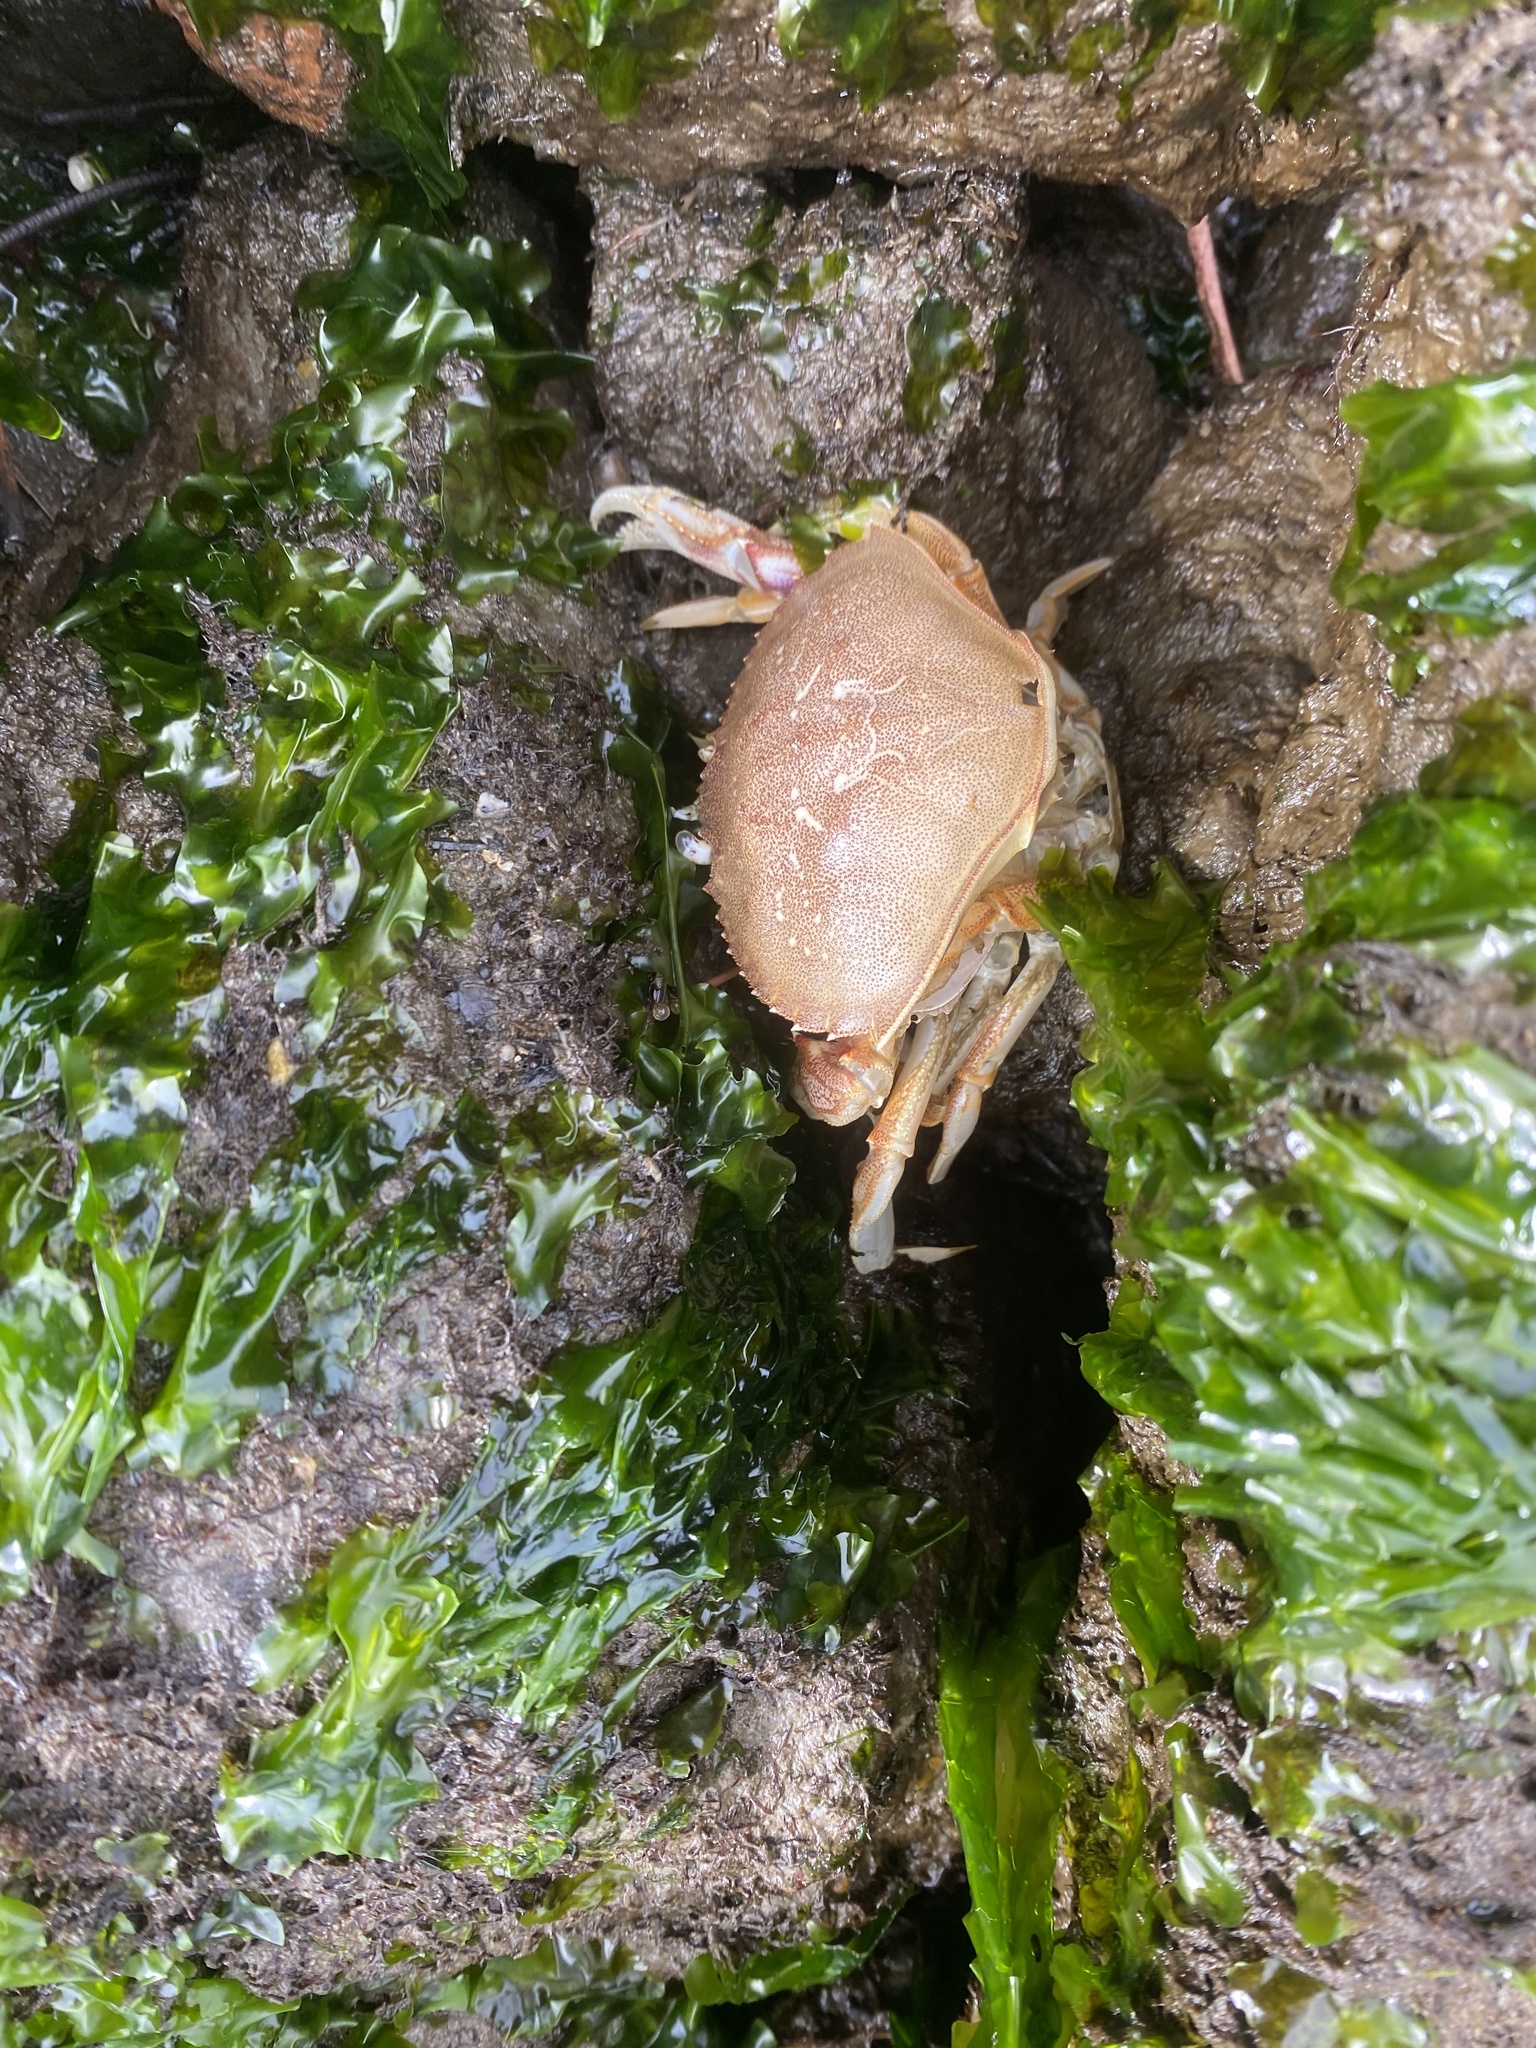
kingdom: Animalia
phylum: Arthropoda
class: Malacostraca
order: Decapoda
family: Cancridae
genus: Metacarcinus
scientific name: Metacarcinus magister
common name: Californian crab
